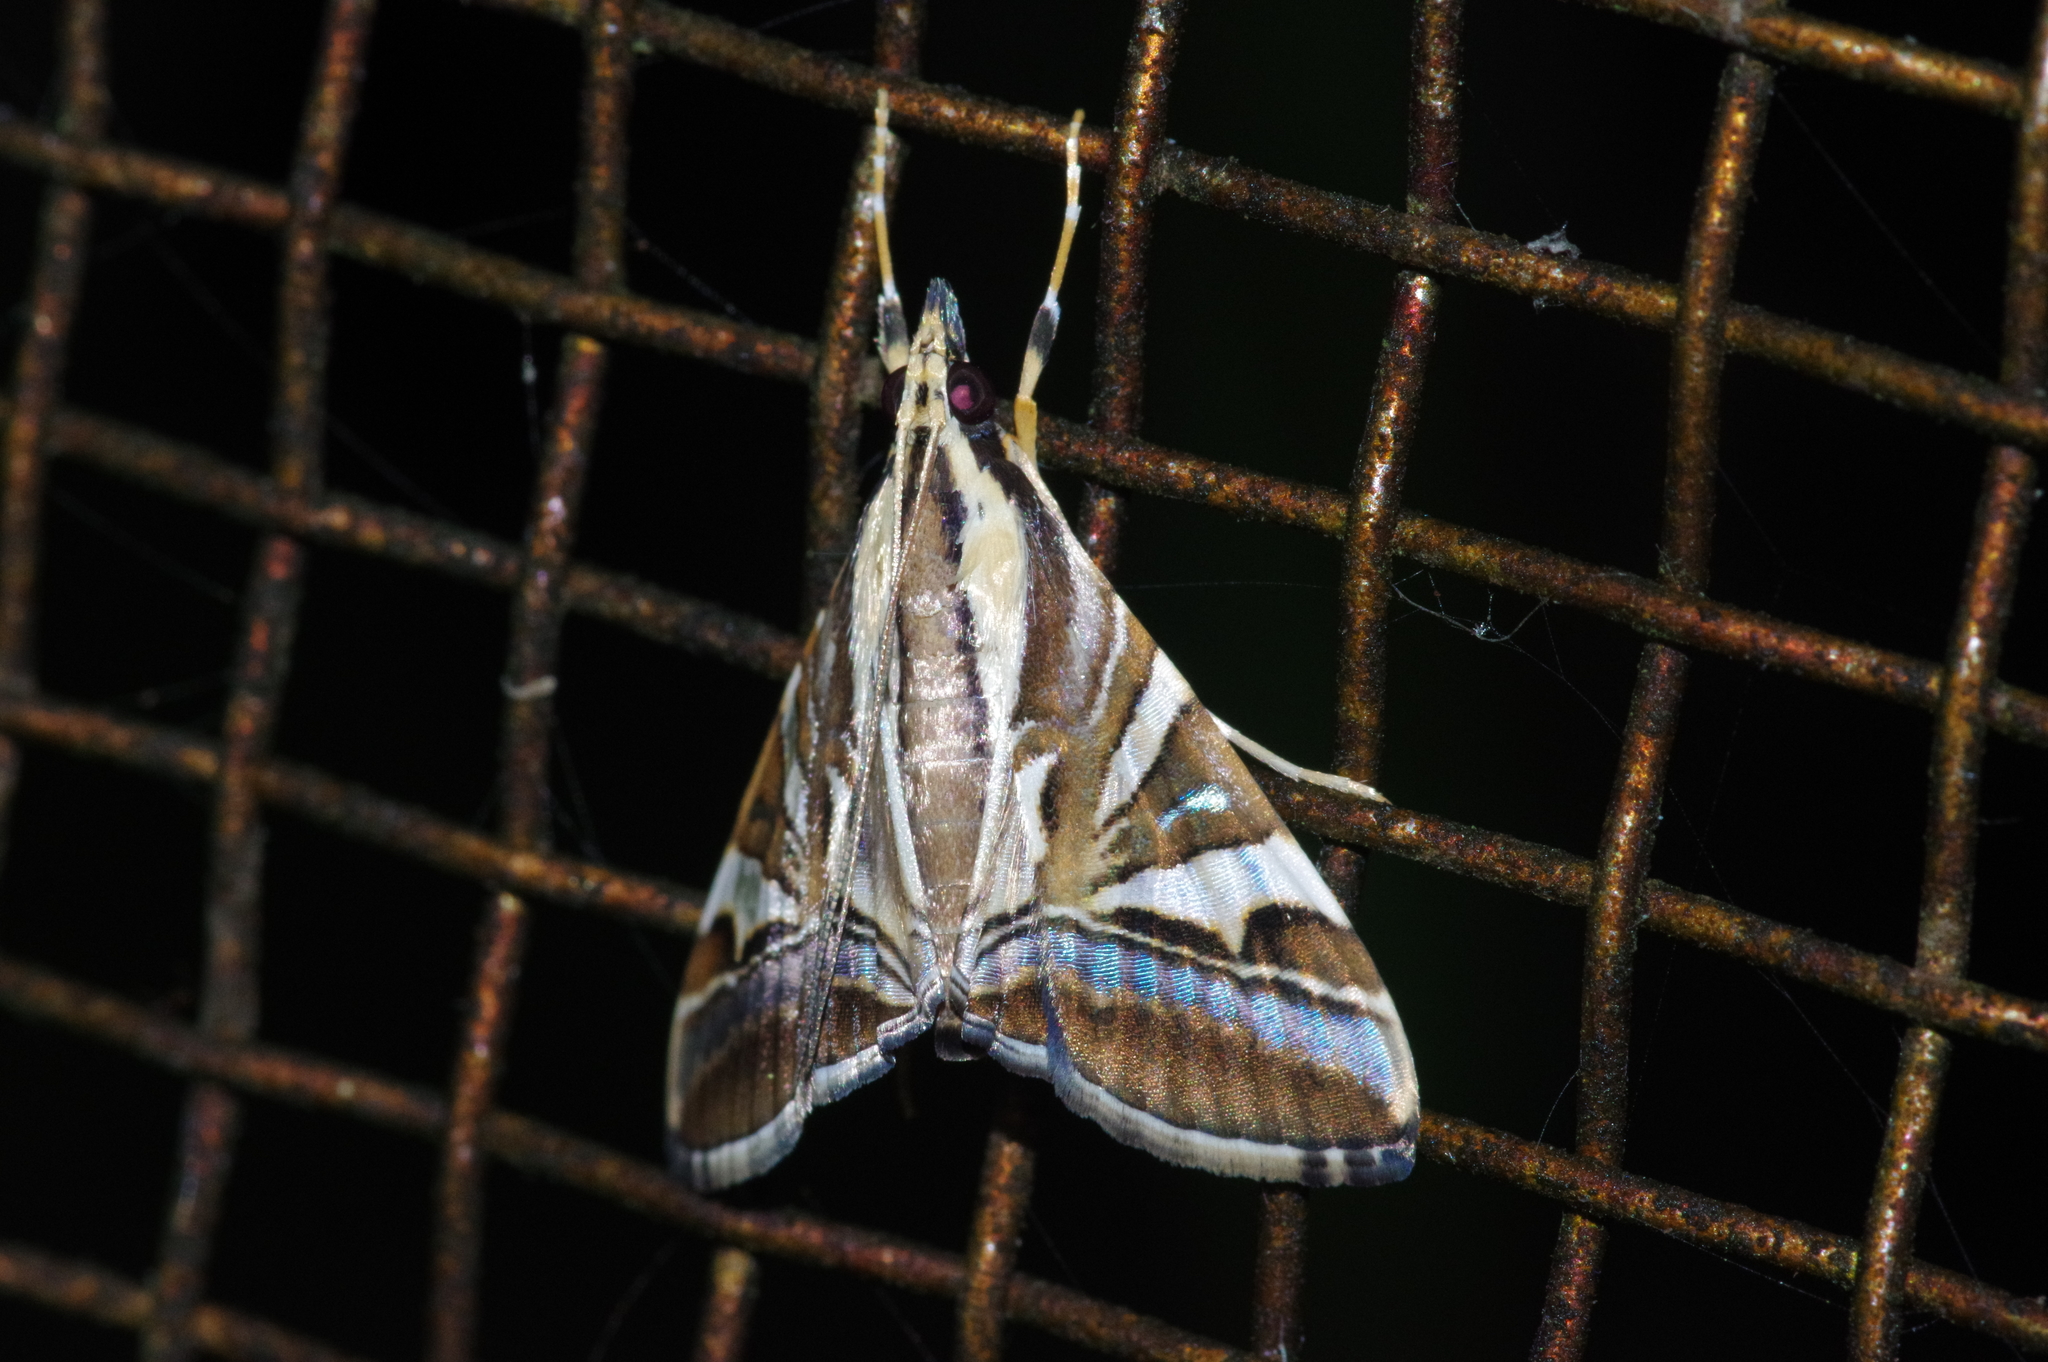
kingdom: Animalia
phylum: Arthropoda
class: Insecta
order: Lepidoptera
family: Crambidae
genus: Agrioglypta
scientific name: Agrioglypta itysalis
